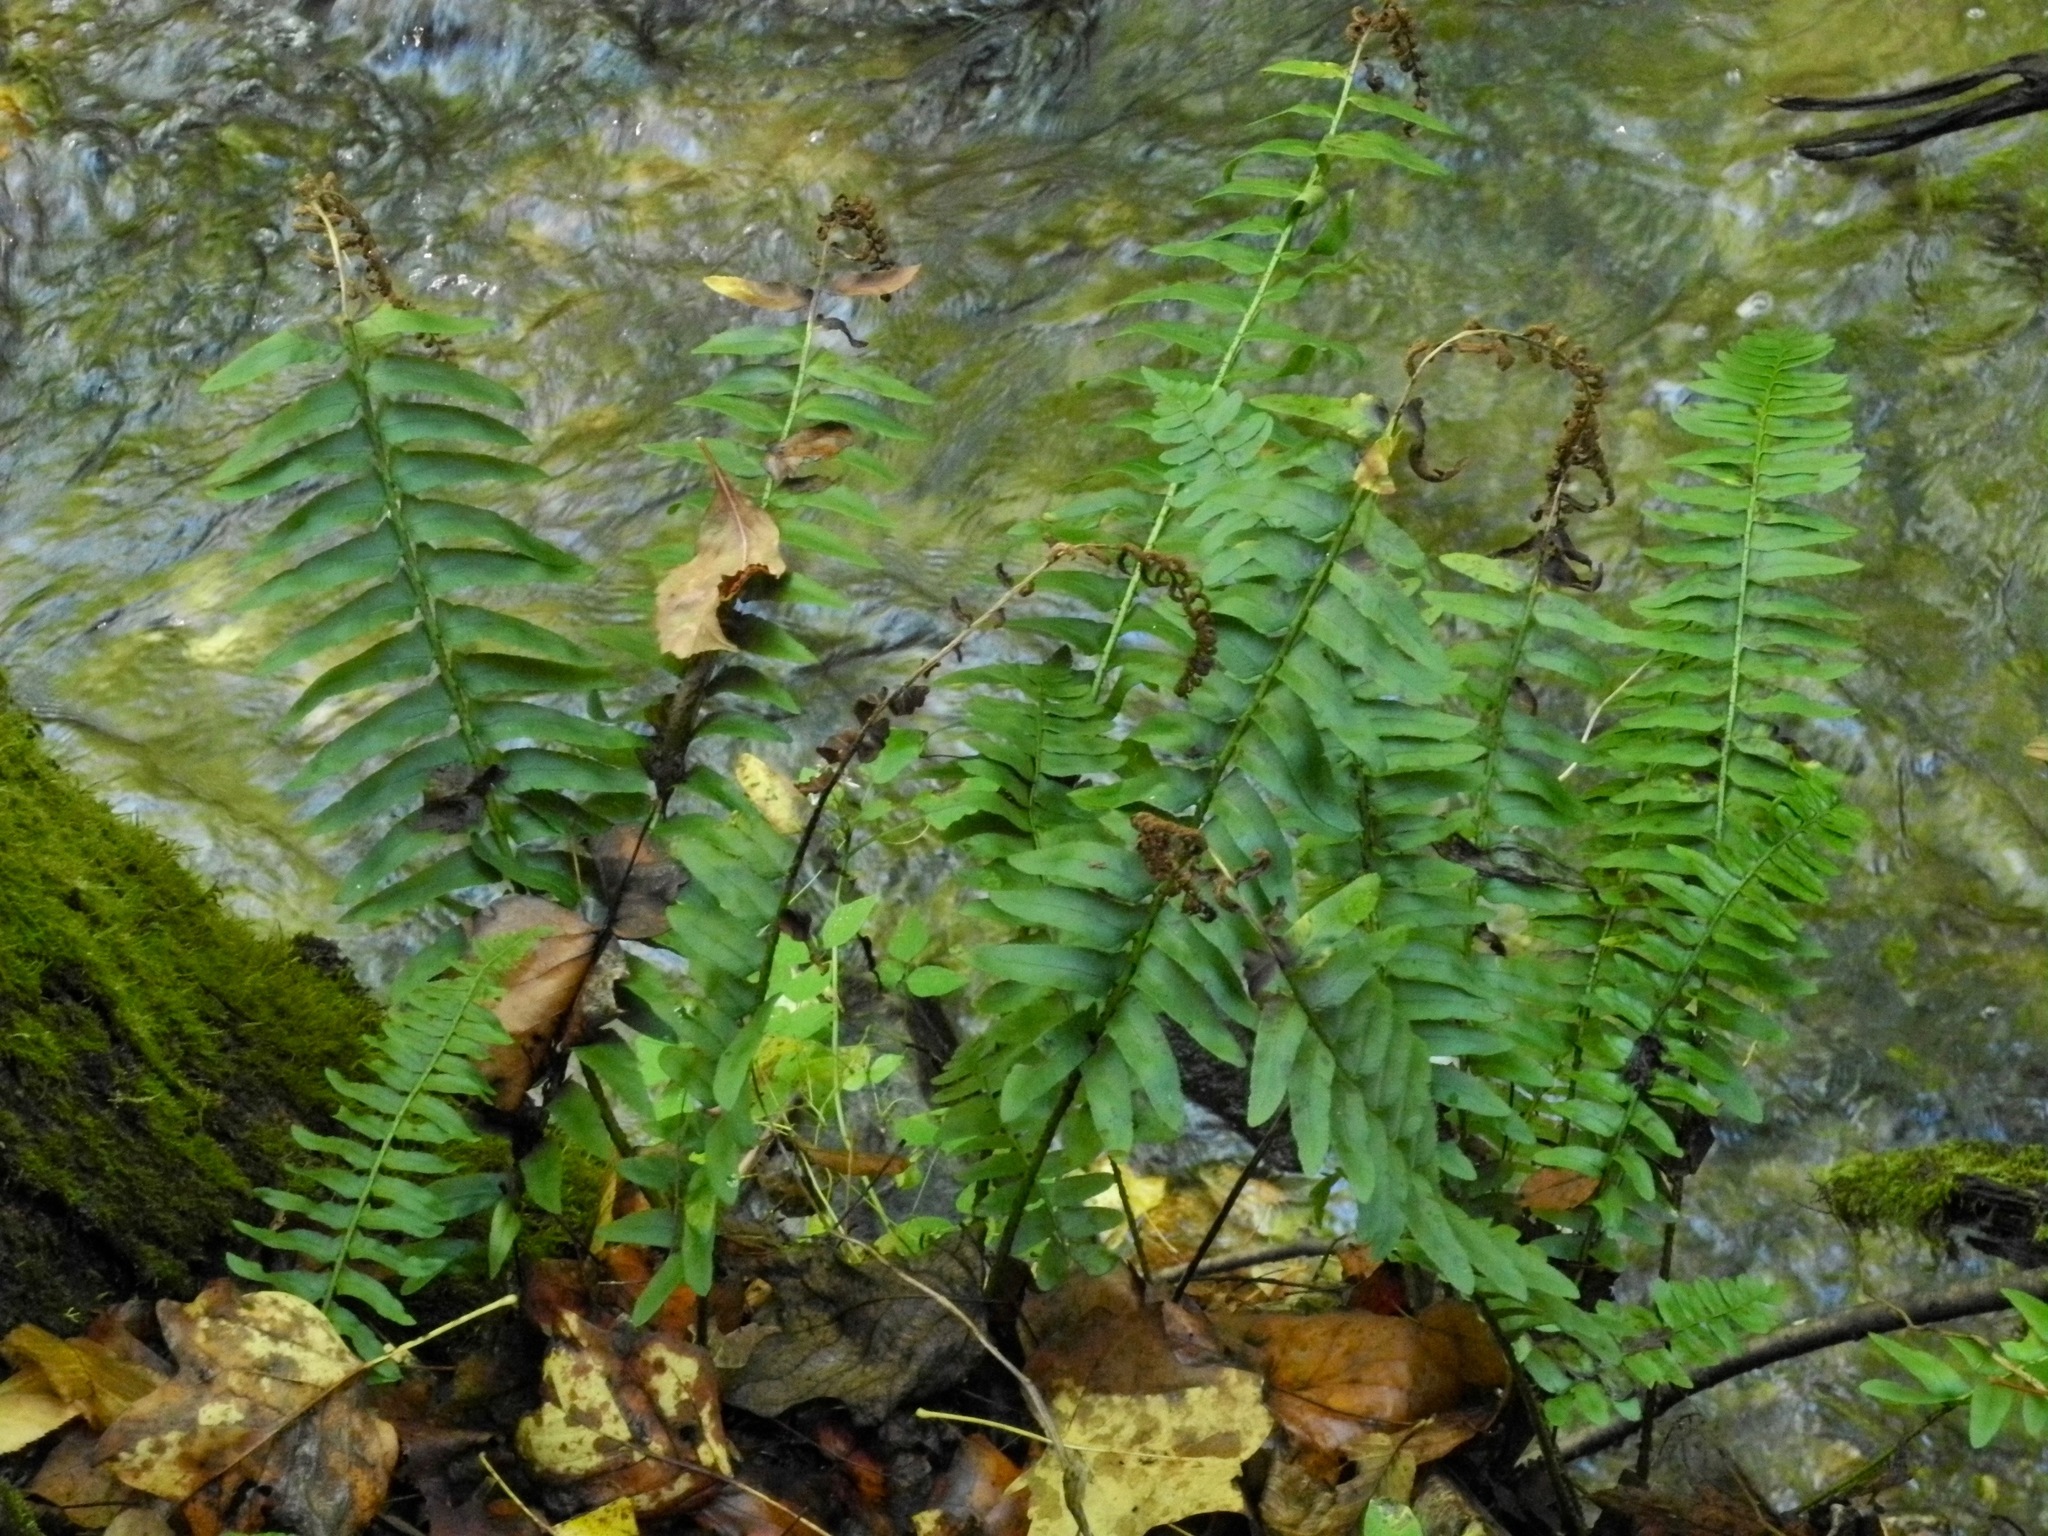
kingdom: Plantae
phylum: Tracheophyta
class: Polypodiopsida
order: Polypodiales
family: Dryopteridaceae
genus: Polystichum
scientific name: Polystichum acrostichoides
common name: Christmas fern
